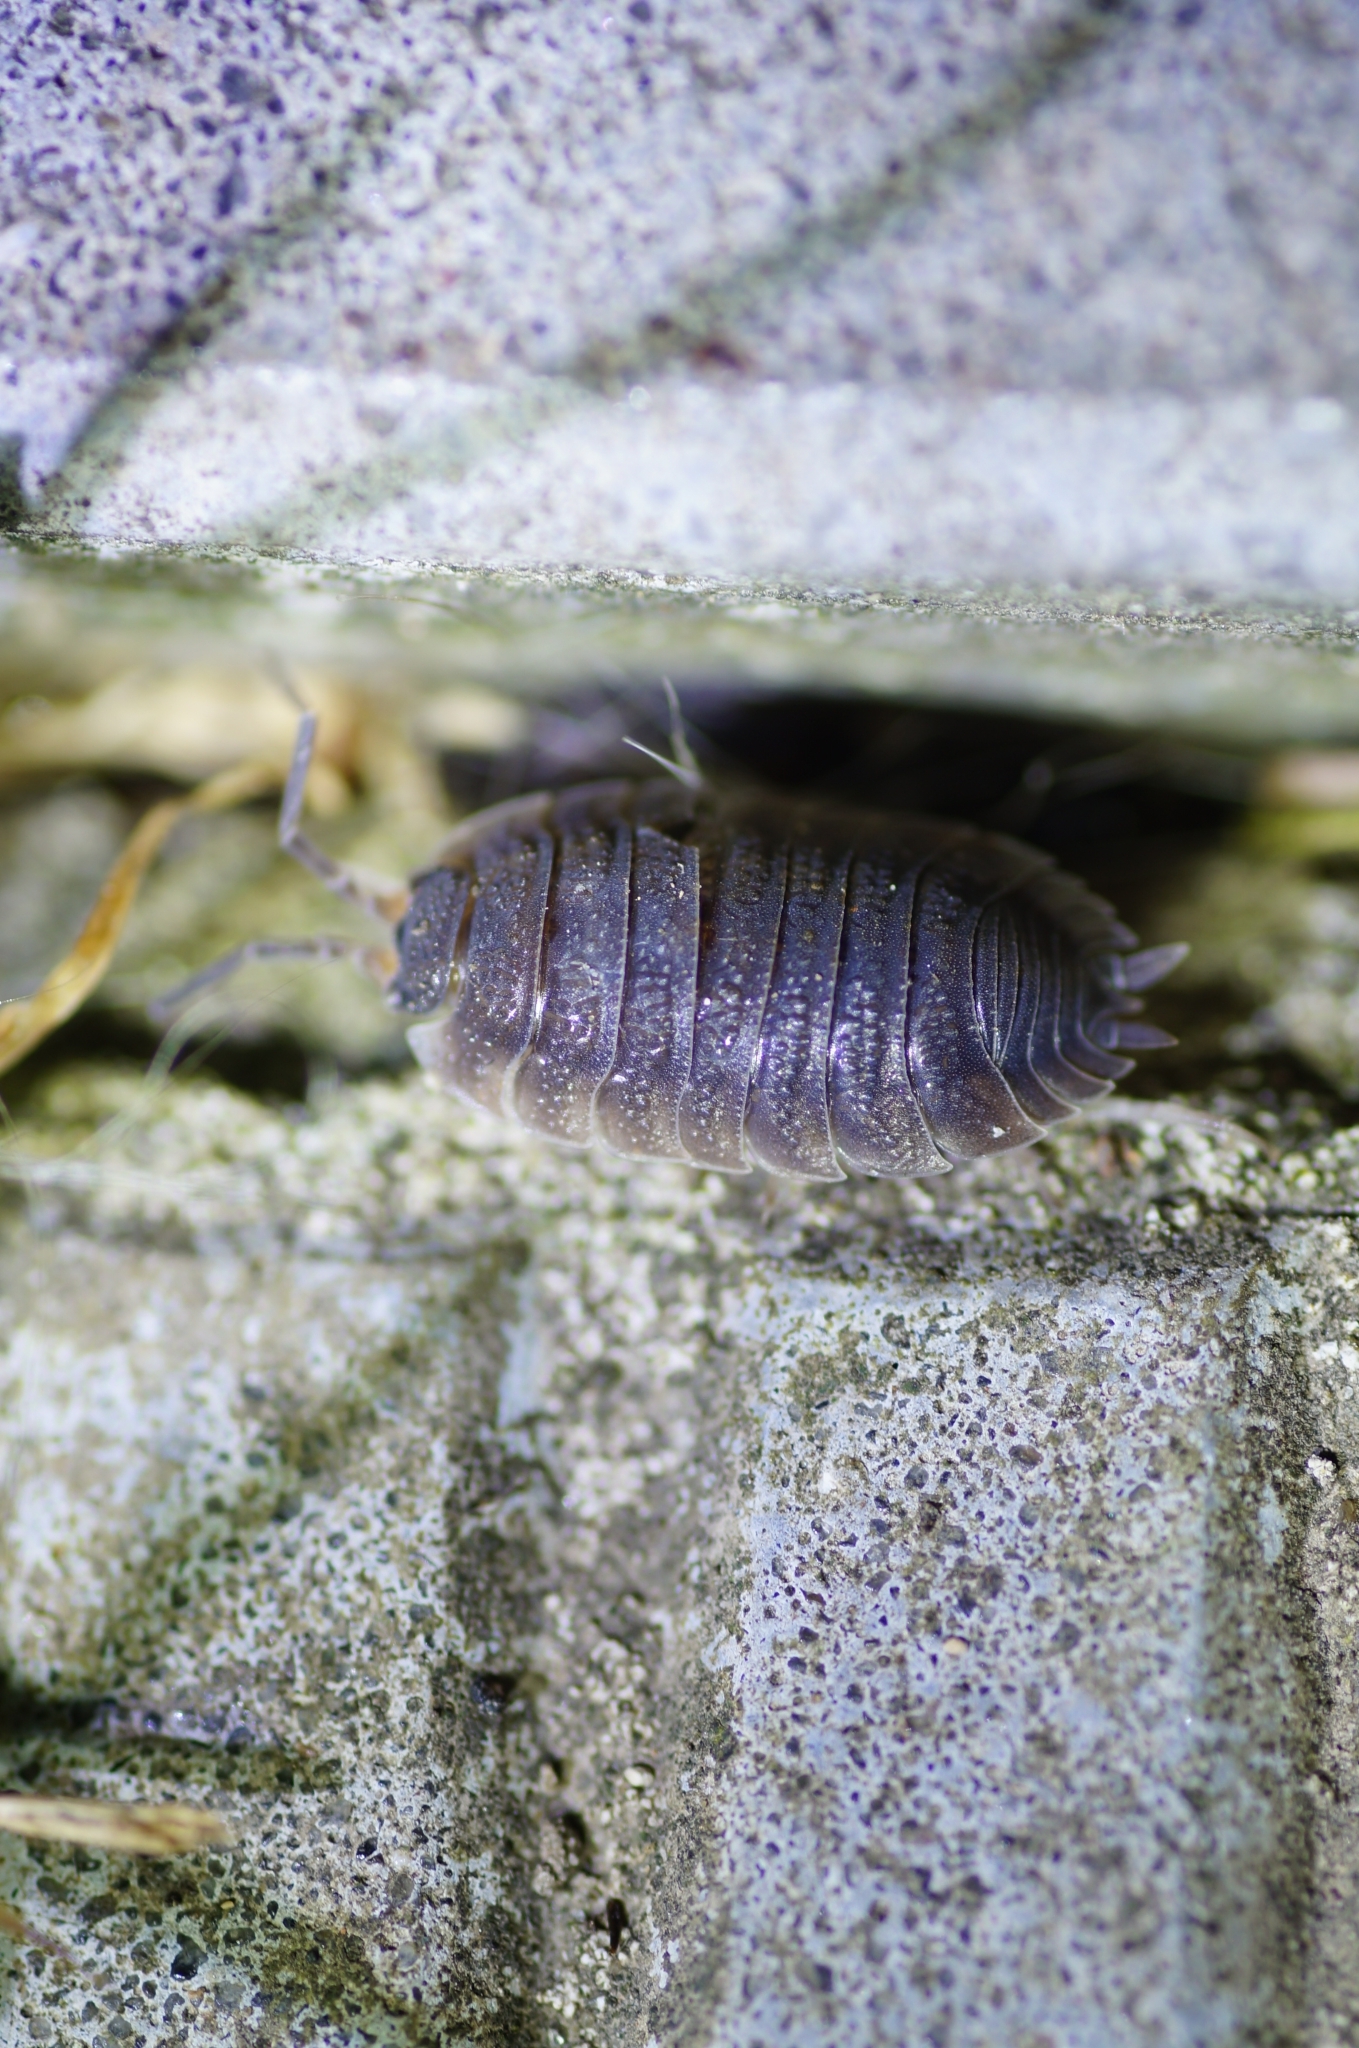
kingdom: Animalia
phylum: Arthropoda
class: Malacostraca
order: Isopoda
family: Porcellionidae
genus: Porcellio
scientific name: Porcellio scaber
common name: Common rough woodlouse
